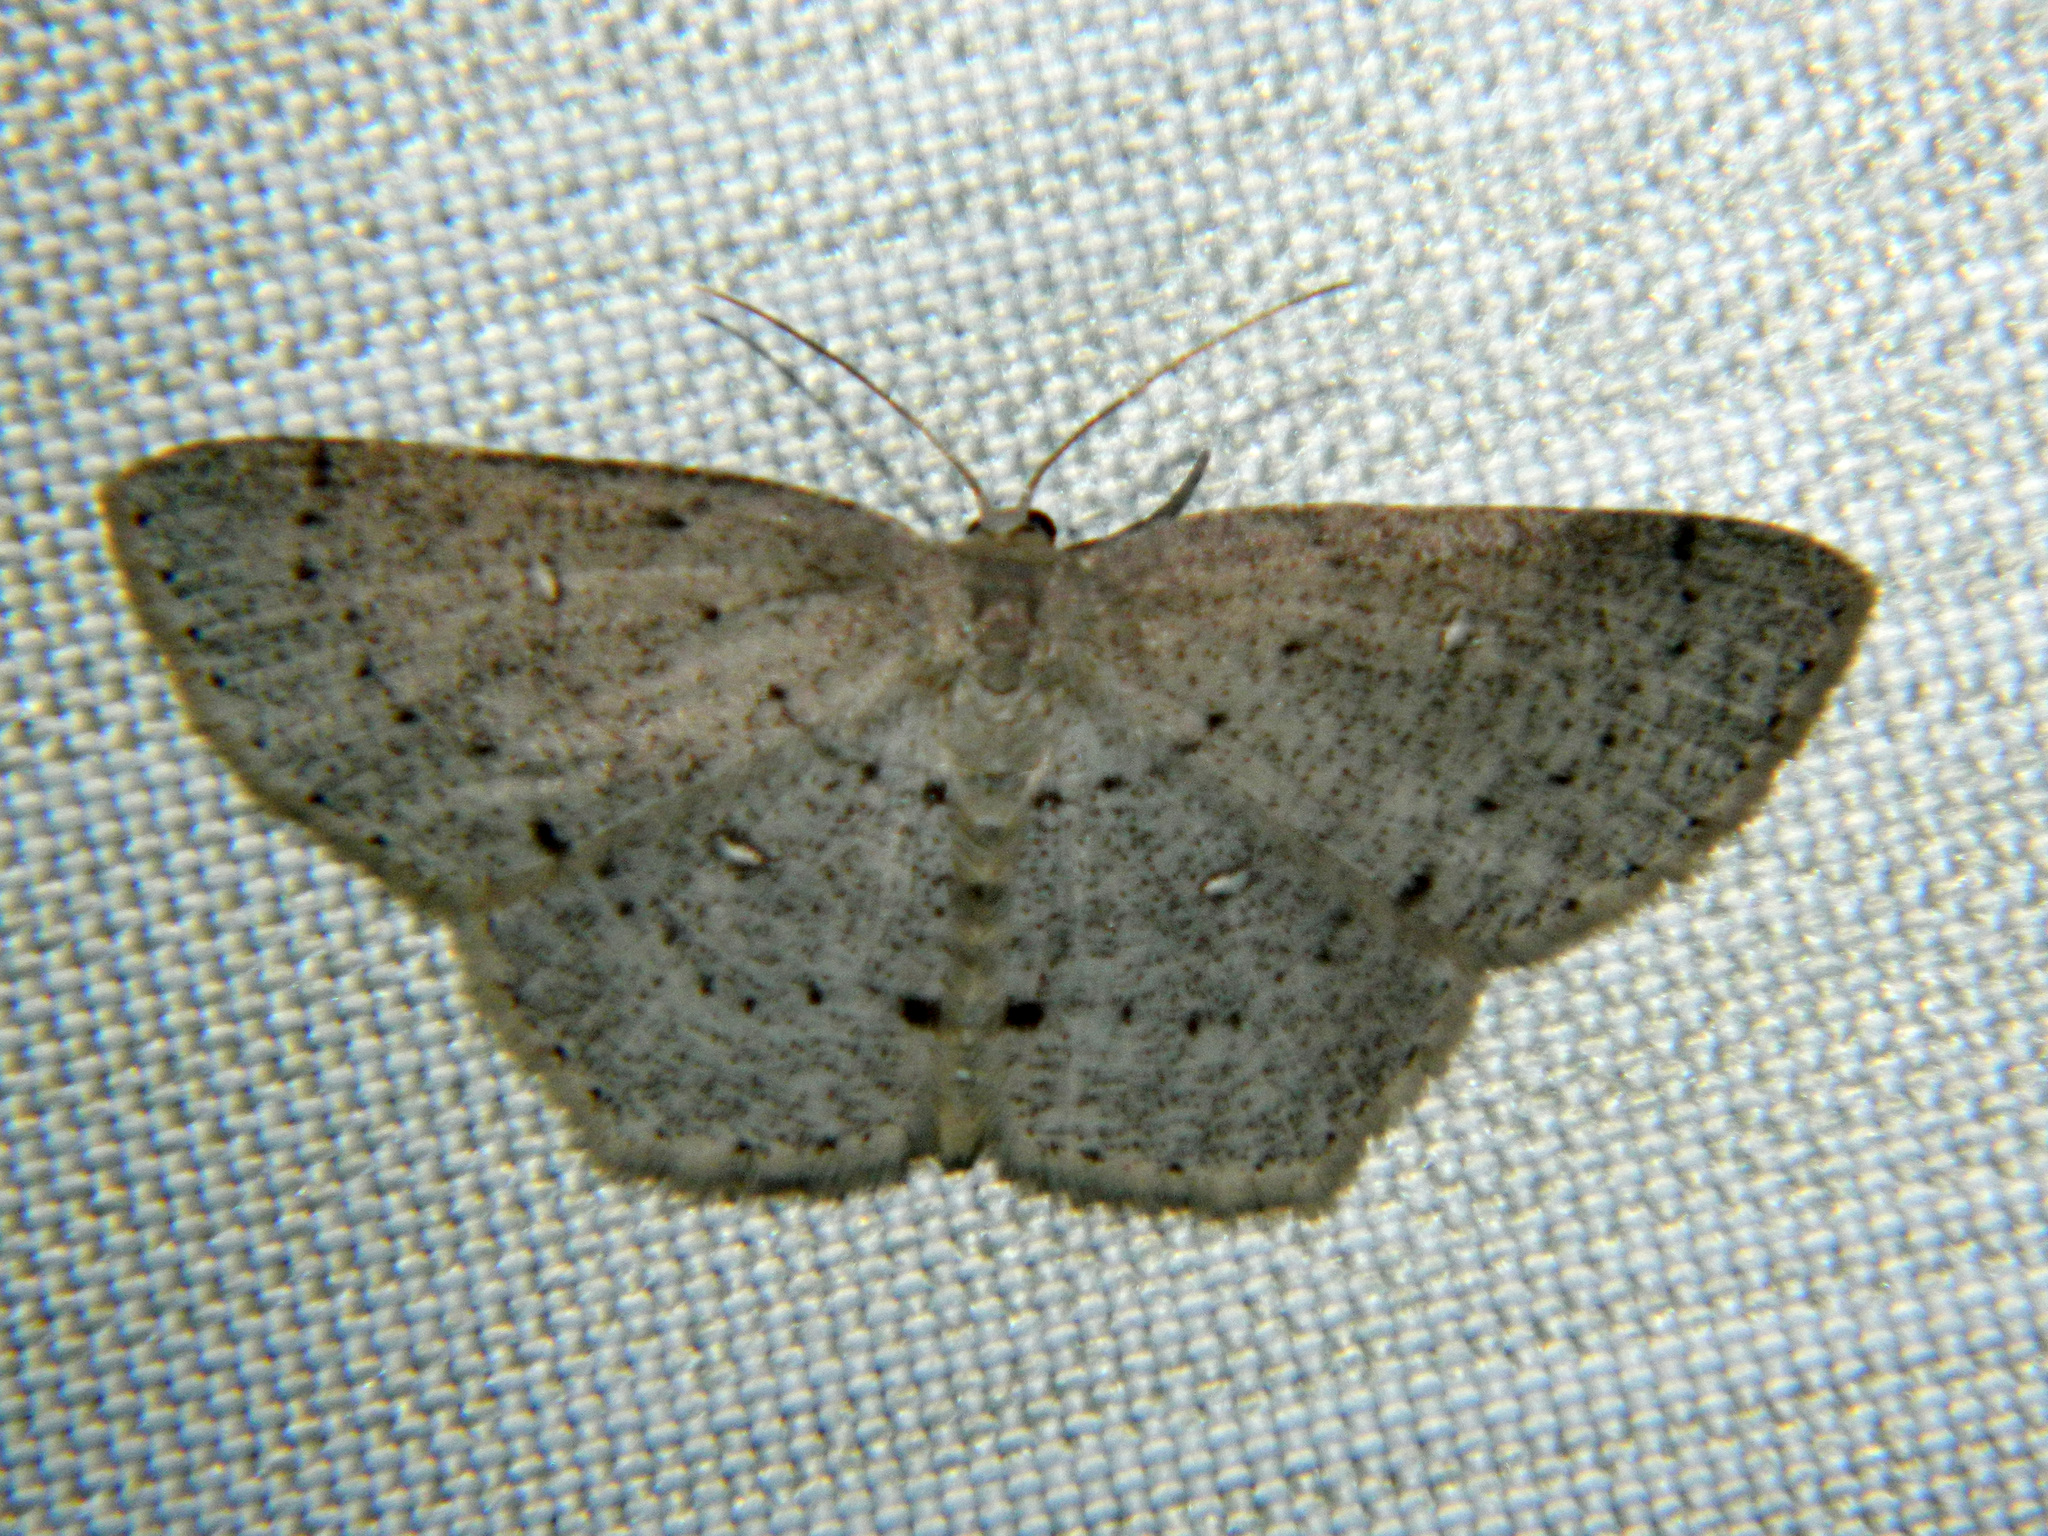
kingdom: Animalia
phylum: Arthropoda
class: Insecta
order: Lepidoptera
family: Geometridae
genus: Cyclophora
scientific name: Cyclophora pendulinaria
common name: Sweet fern geometer
